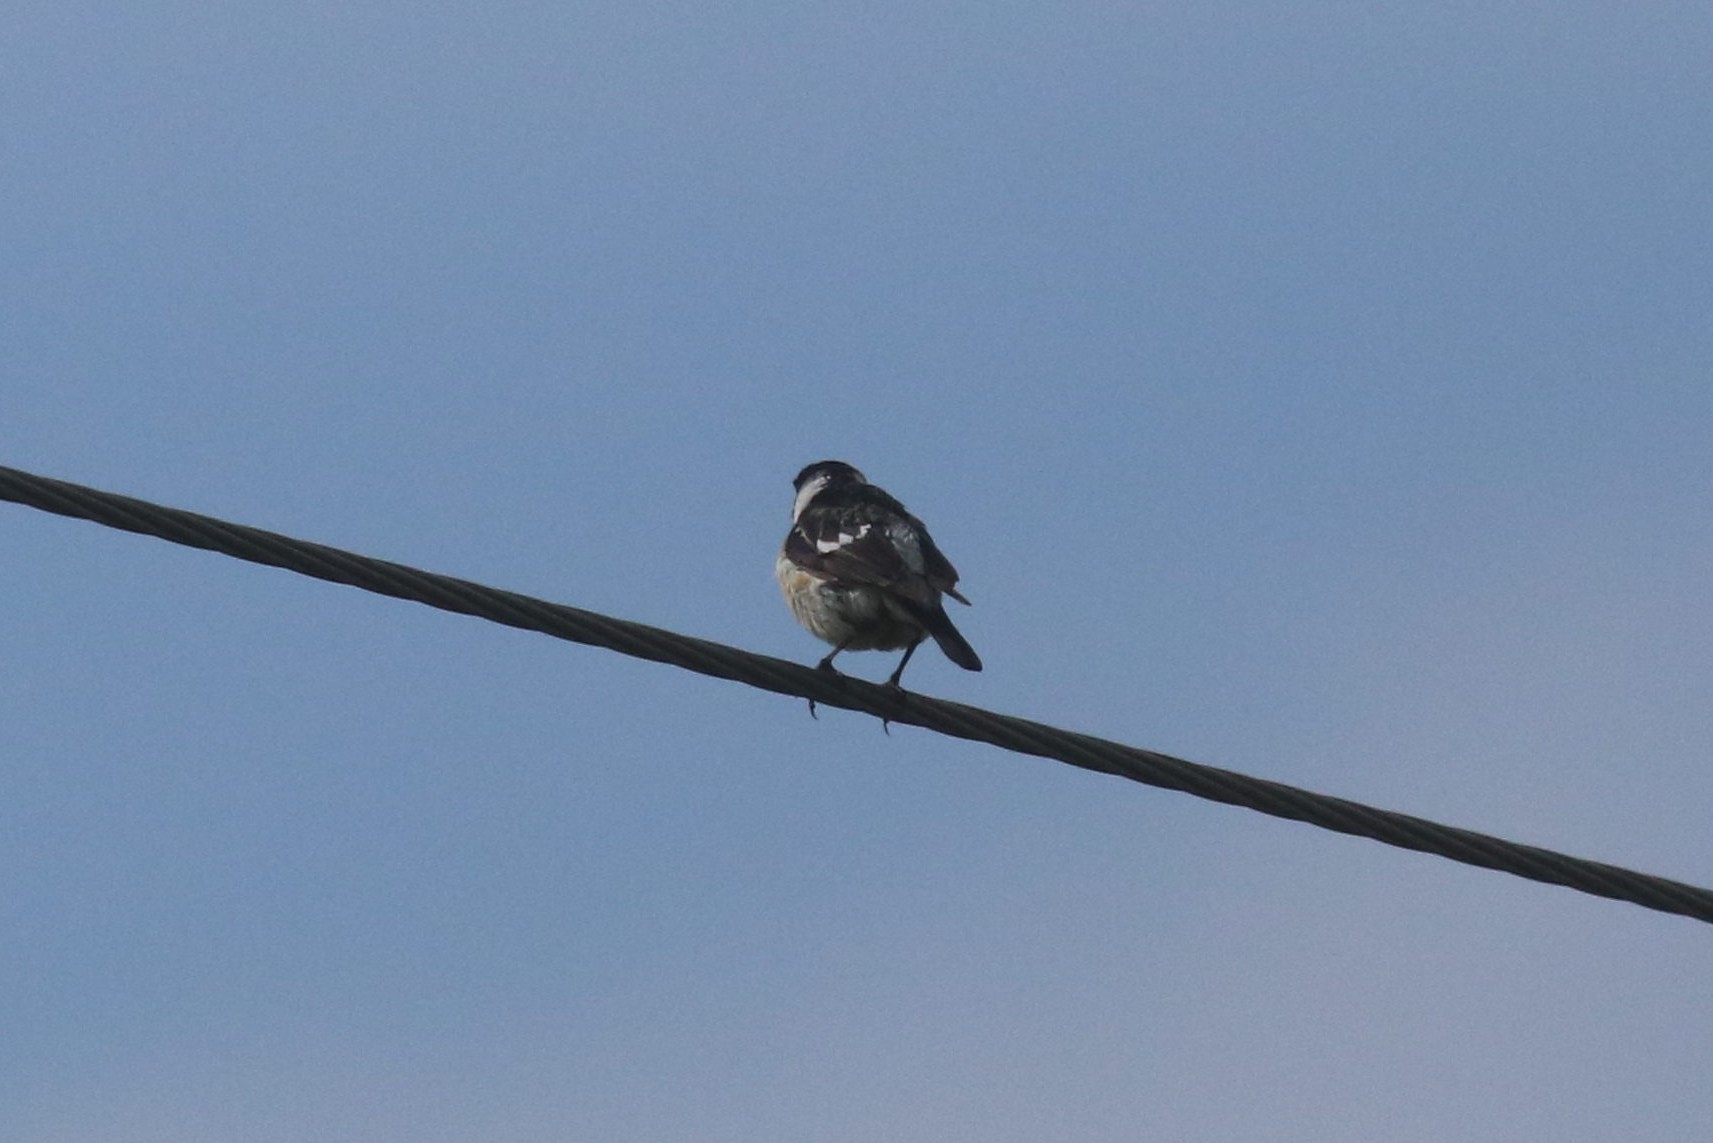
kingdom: Animalia
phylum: Chordata
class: Aves
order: Passeriformes
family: Muscicapidae
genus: Saxicola
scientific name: Saxicola maurus
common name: Siberian stonechat
